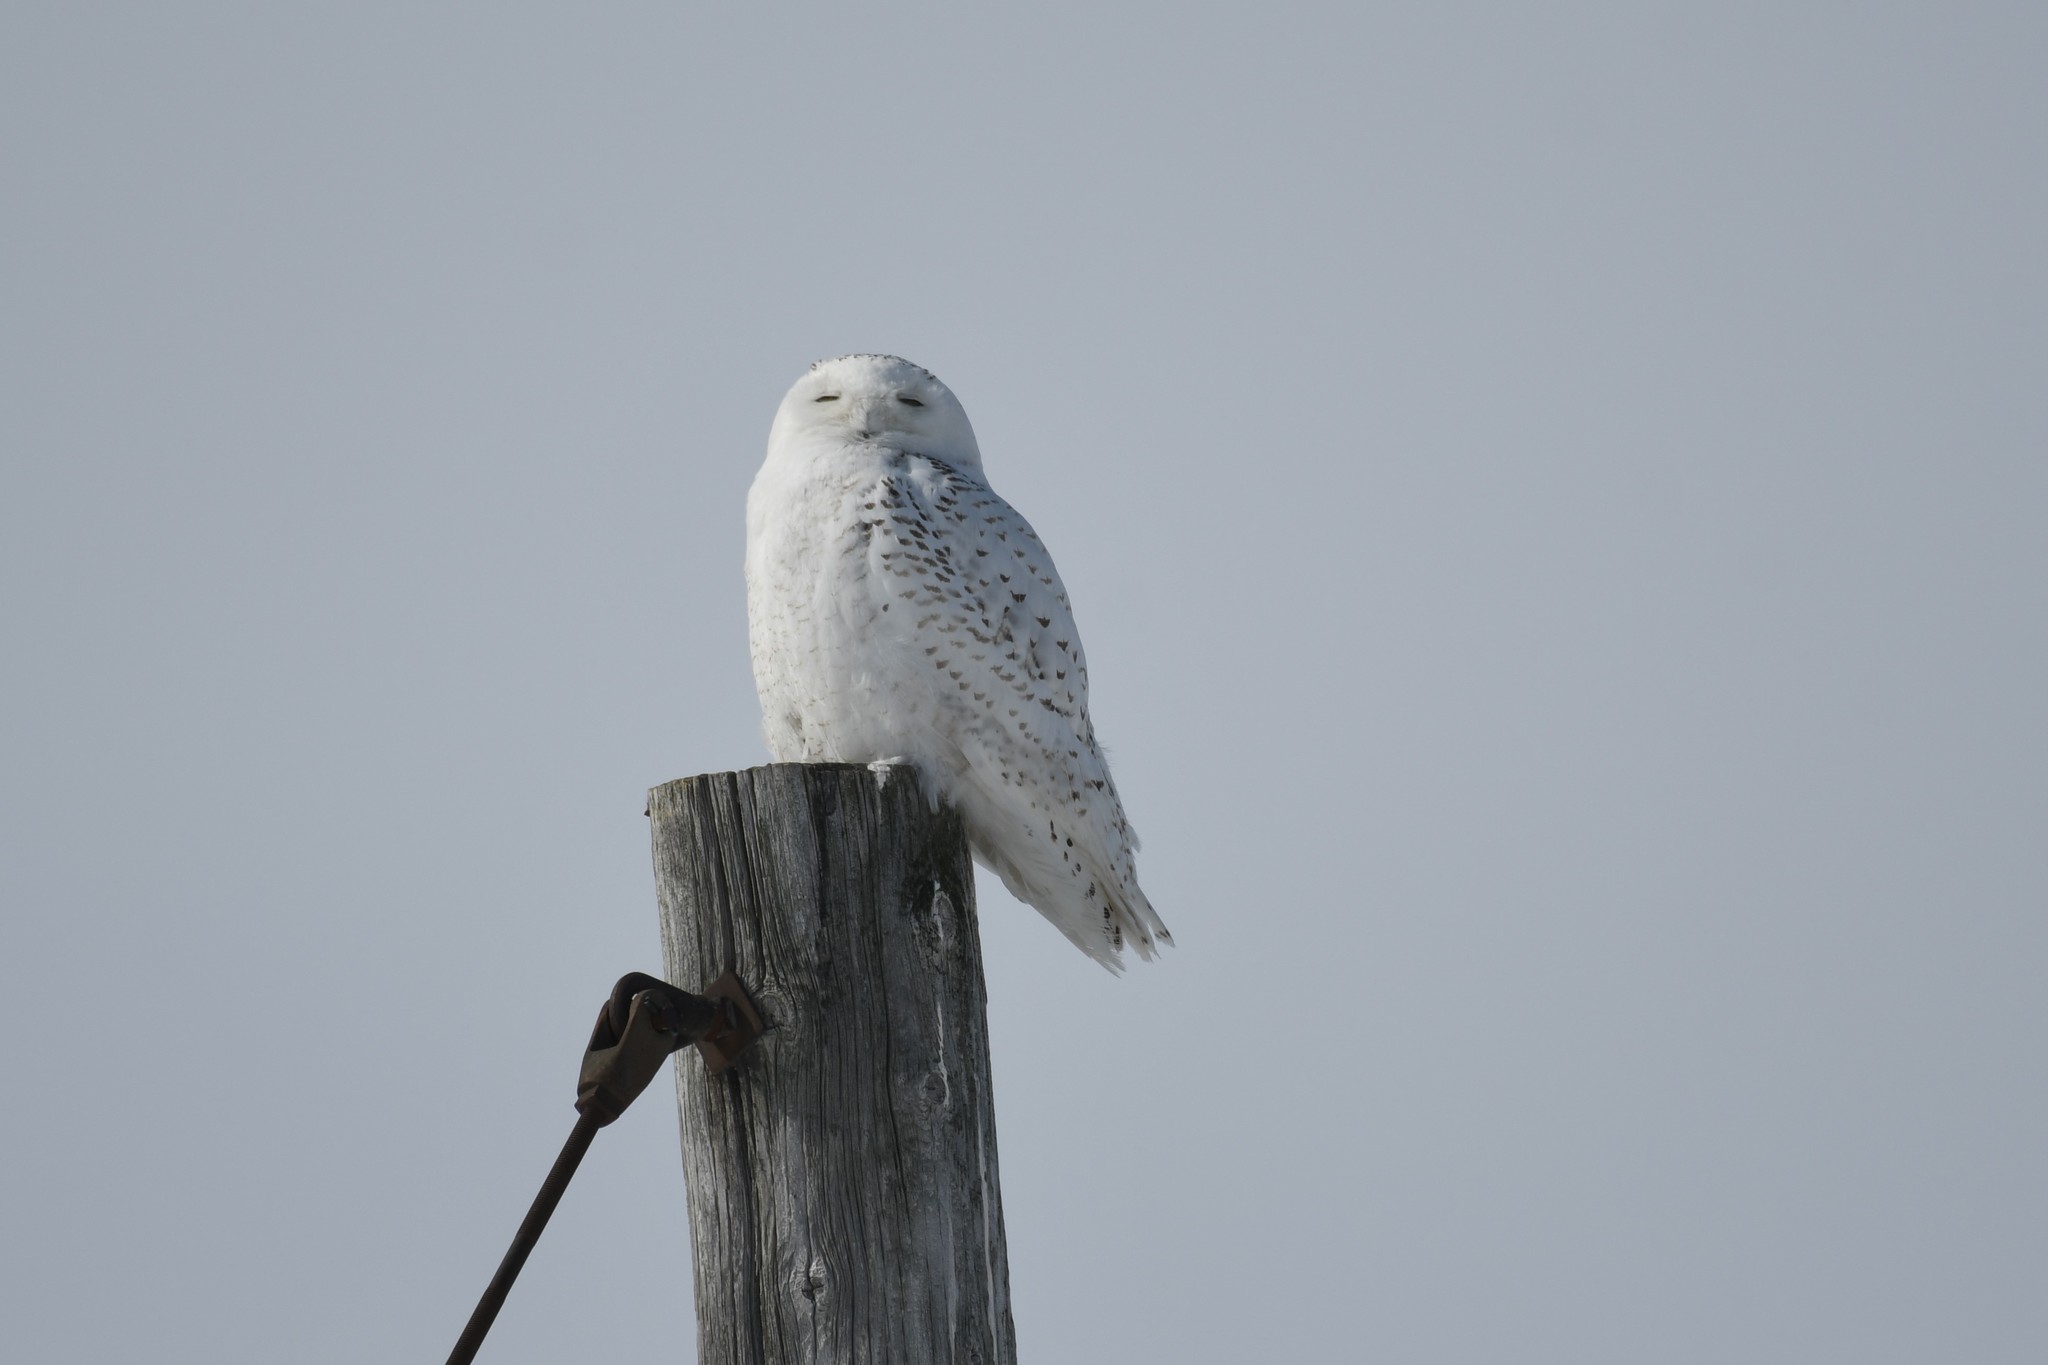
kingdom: Animalia
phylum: Chordata
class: Aves
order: Strigiformes
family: Strigidae
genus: Bubo
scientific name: Bubo scandiacus
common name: Snowy owl
